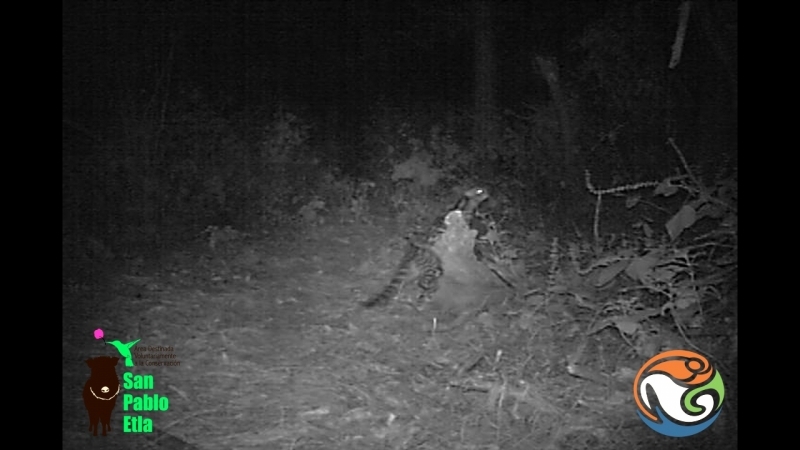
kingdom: Animalia
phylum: Chordata
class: Mammalia
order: Carnivora
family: Felidae
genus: Leopardus
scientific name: Leopardus wiedii
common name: Margay
